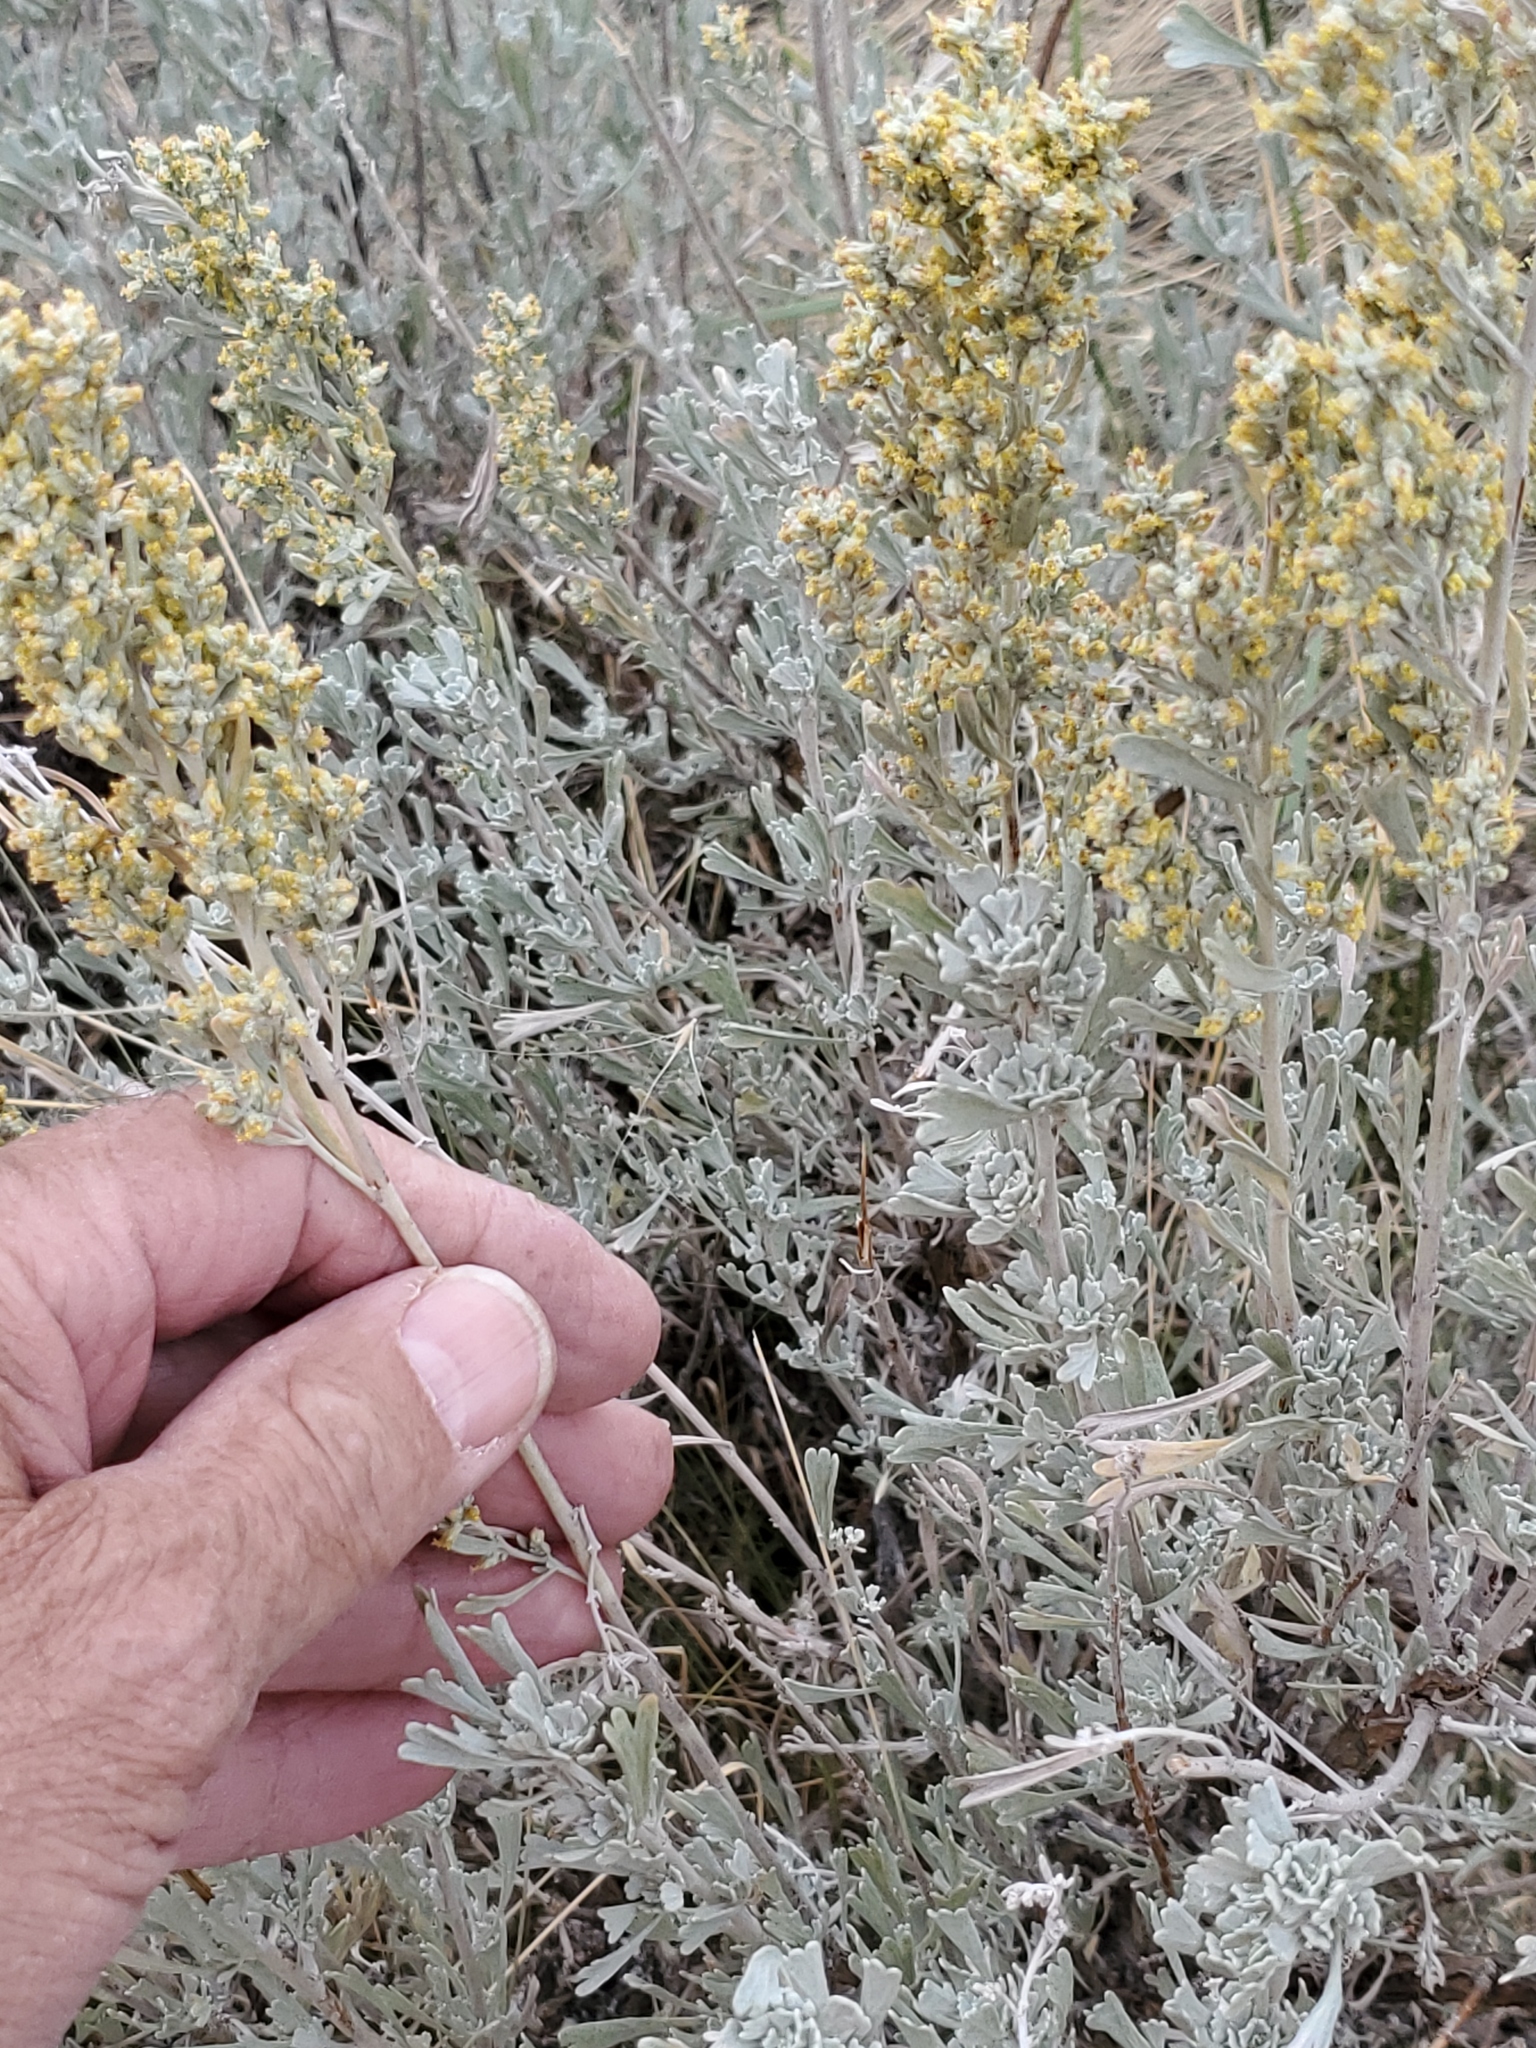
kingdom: Plantae
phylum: Tracheophyta
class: Magnoliopsida
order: Asterales
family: Asteraceae
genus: Artemisia
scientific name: Artemisia tridentata
